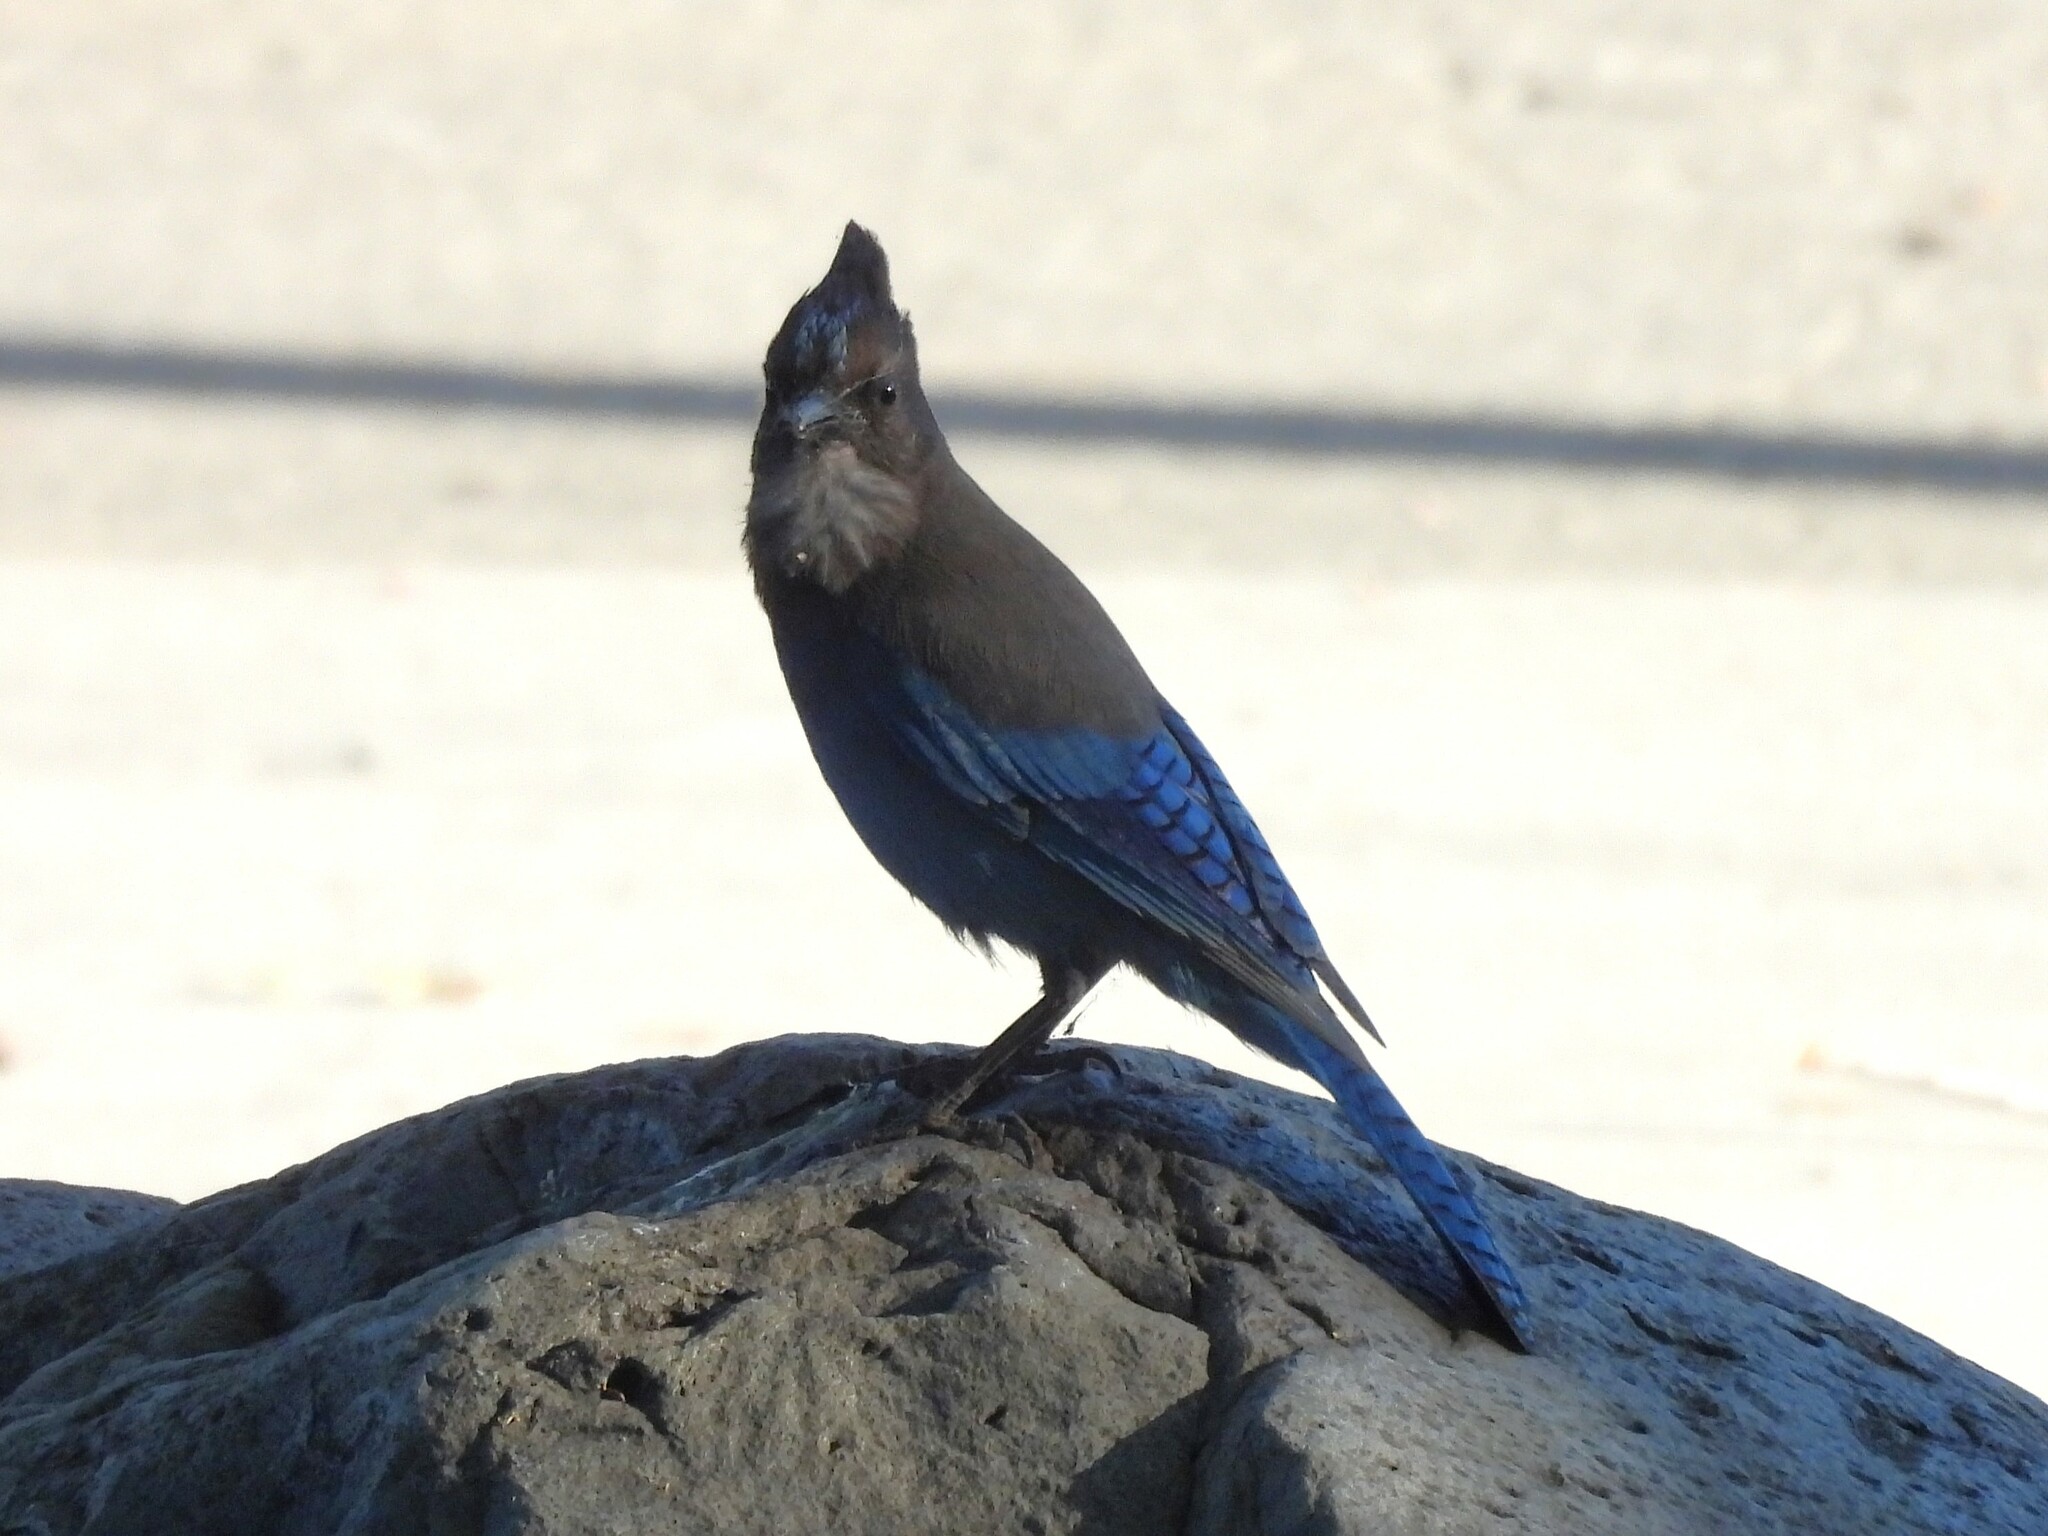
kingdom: Animalia
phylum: Chordata
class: Aves
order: Passeriformes
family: Corvidae
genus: Cyanocitta
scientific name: Cyanocitta stelleri
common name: Steller's jay
